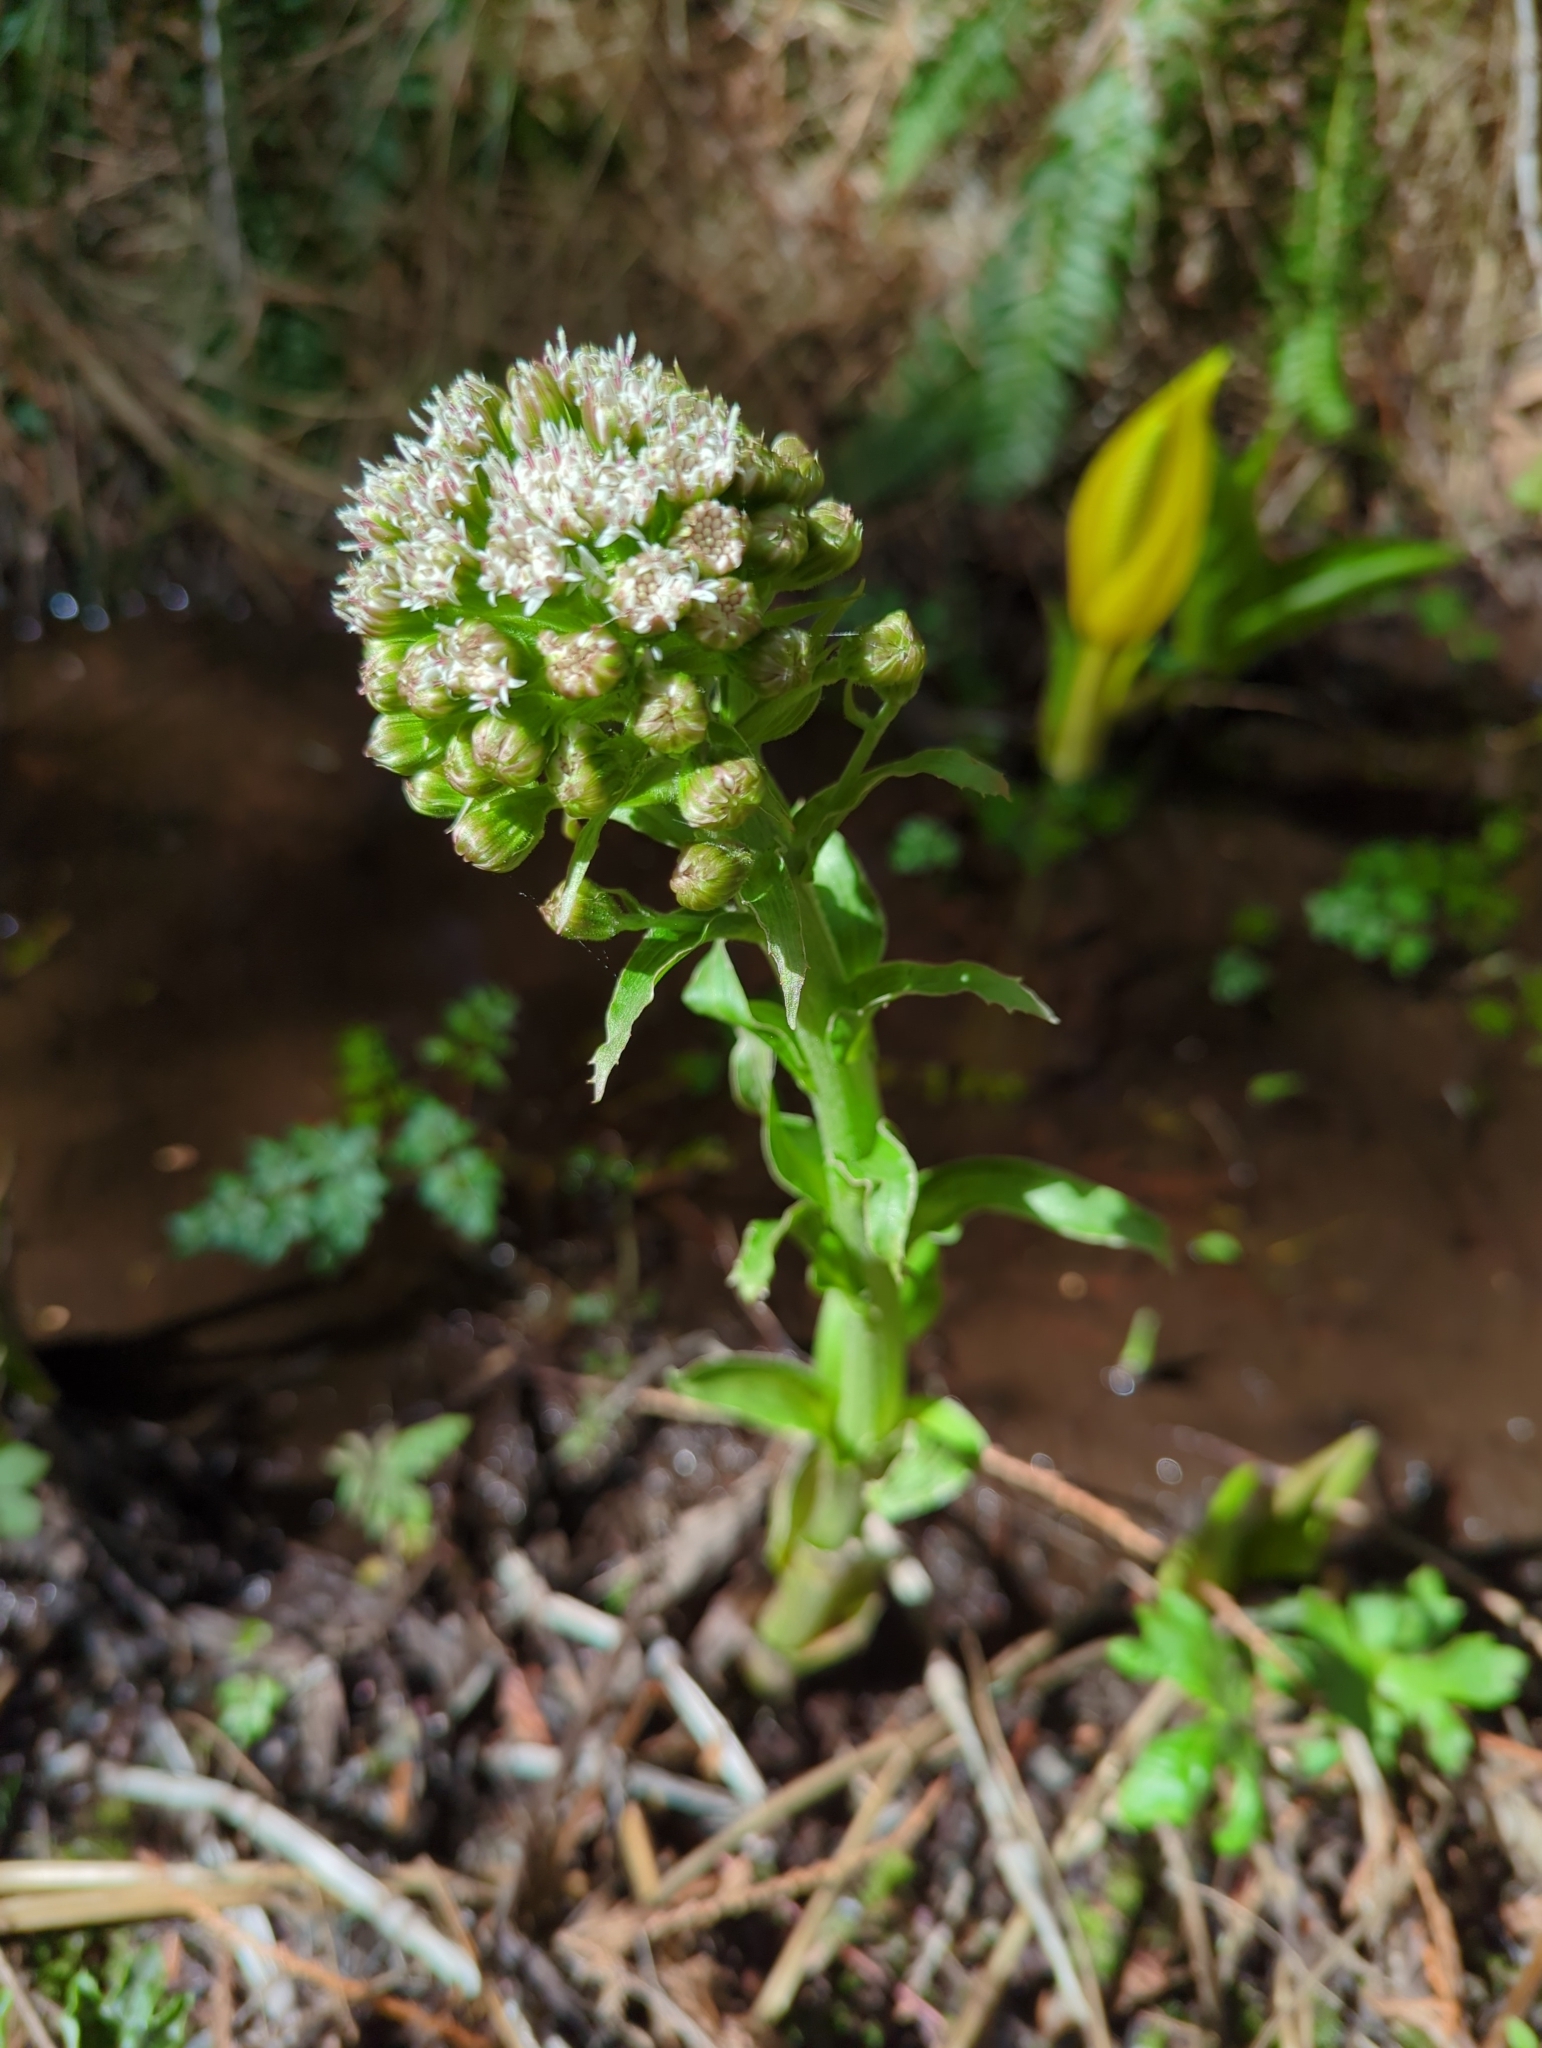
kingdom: Plantae
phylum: Tracheophyta
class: Magnoliopsida
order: Asterales
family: Asteraceae
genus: Petasites
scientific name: Petasites frigidus
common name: Arctic butterbur
